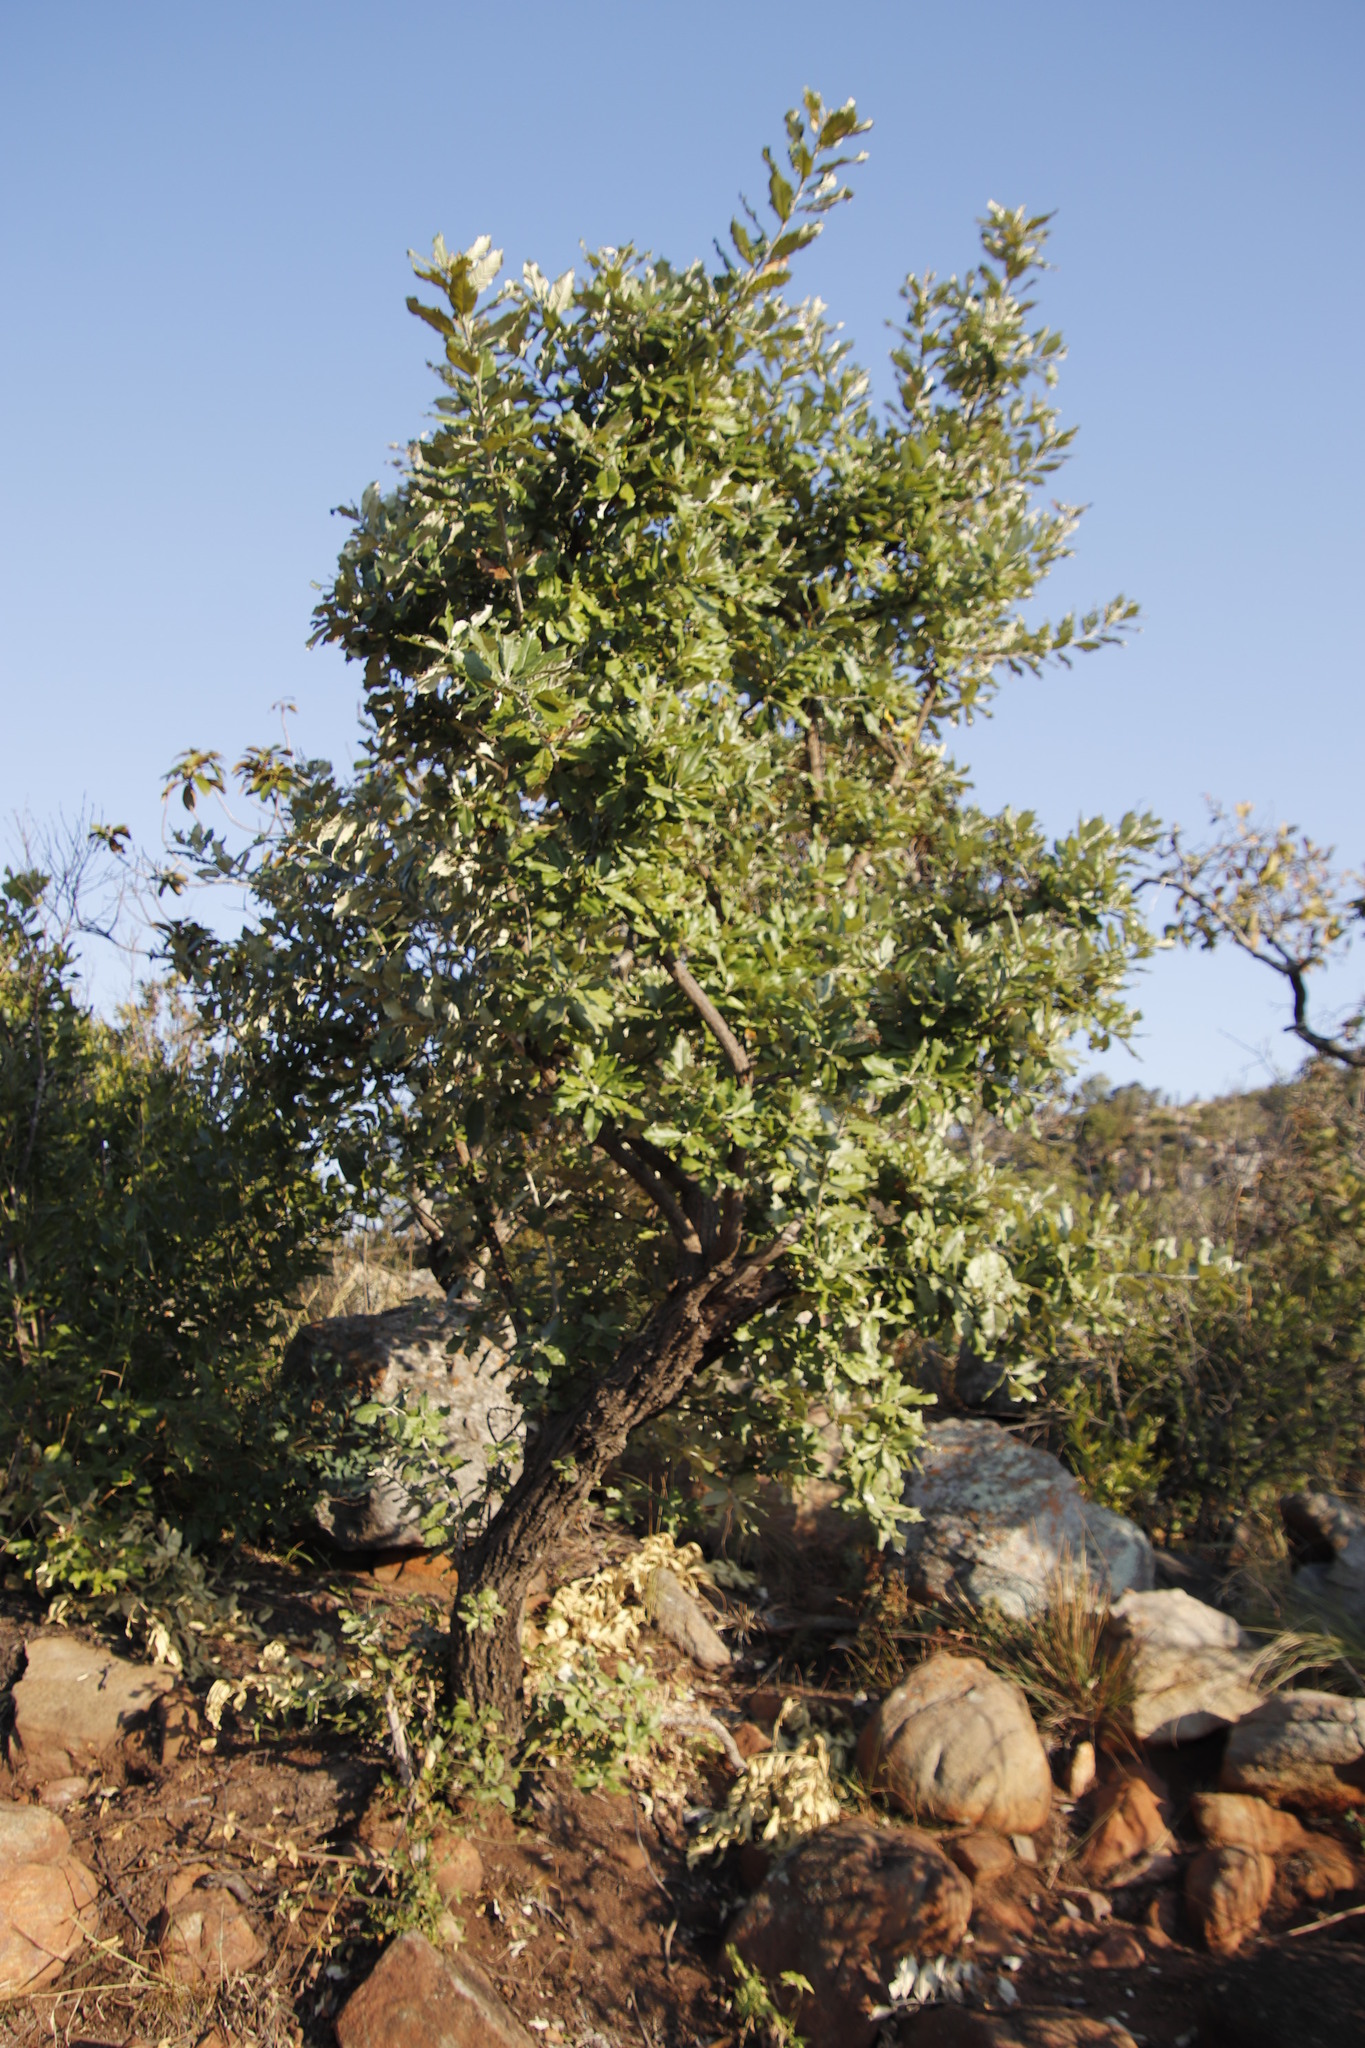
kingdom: Plantae
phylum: Tracheophyta
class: Magnoliopsida
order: Asterales
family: Asteraceae
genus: Brachylaena
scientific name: Brachylaena discolor
